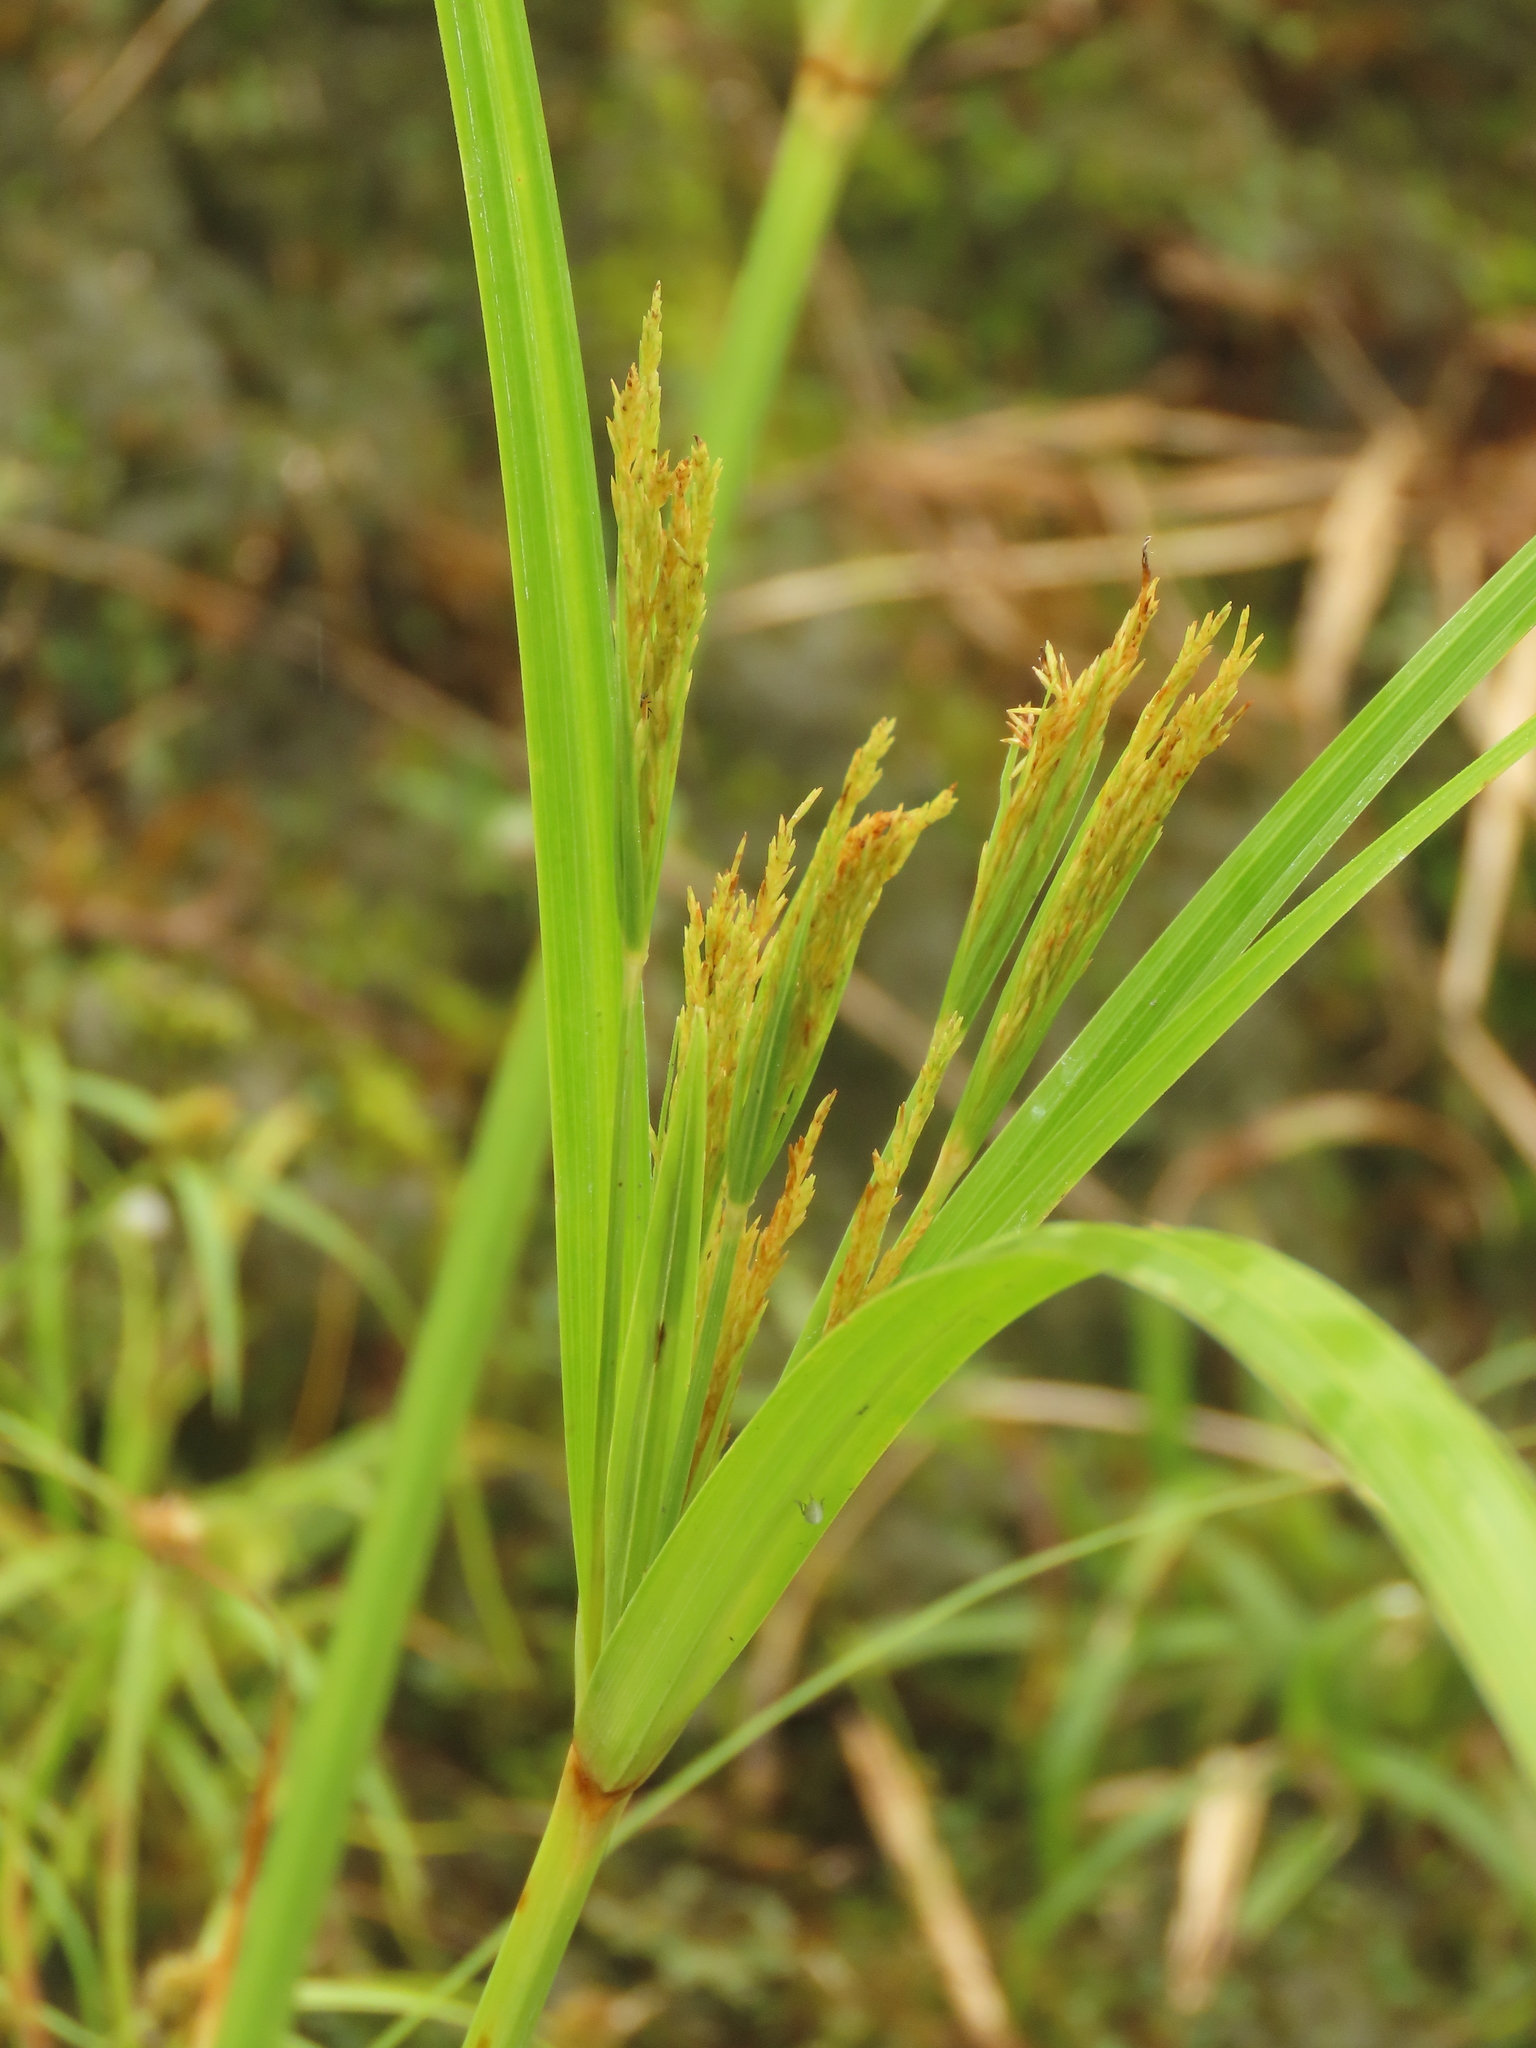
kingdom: Plantae
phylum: Tracheophyta
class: Liliopsida
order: Poales
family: Cyperaceae
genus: Cyperus
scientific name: Cyperus nutans
